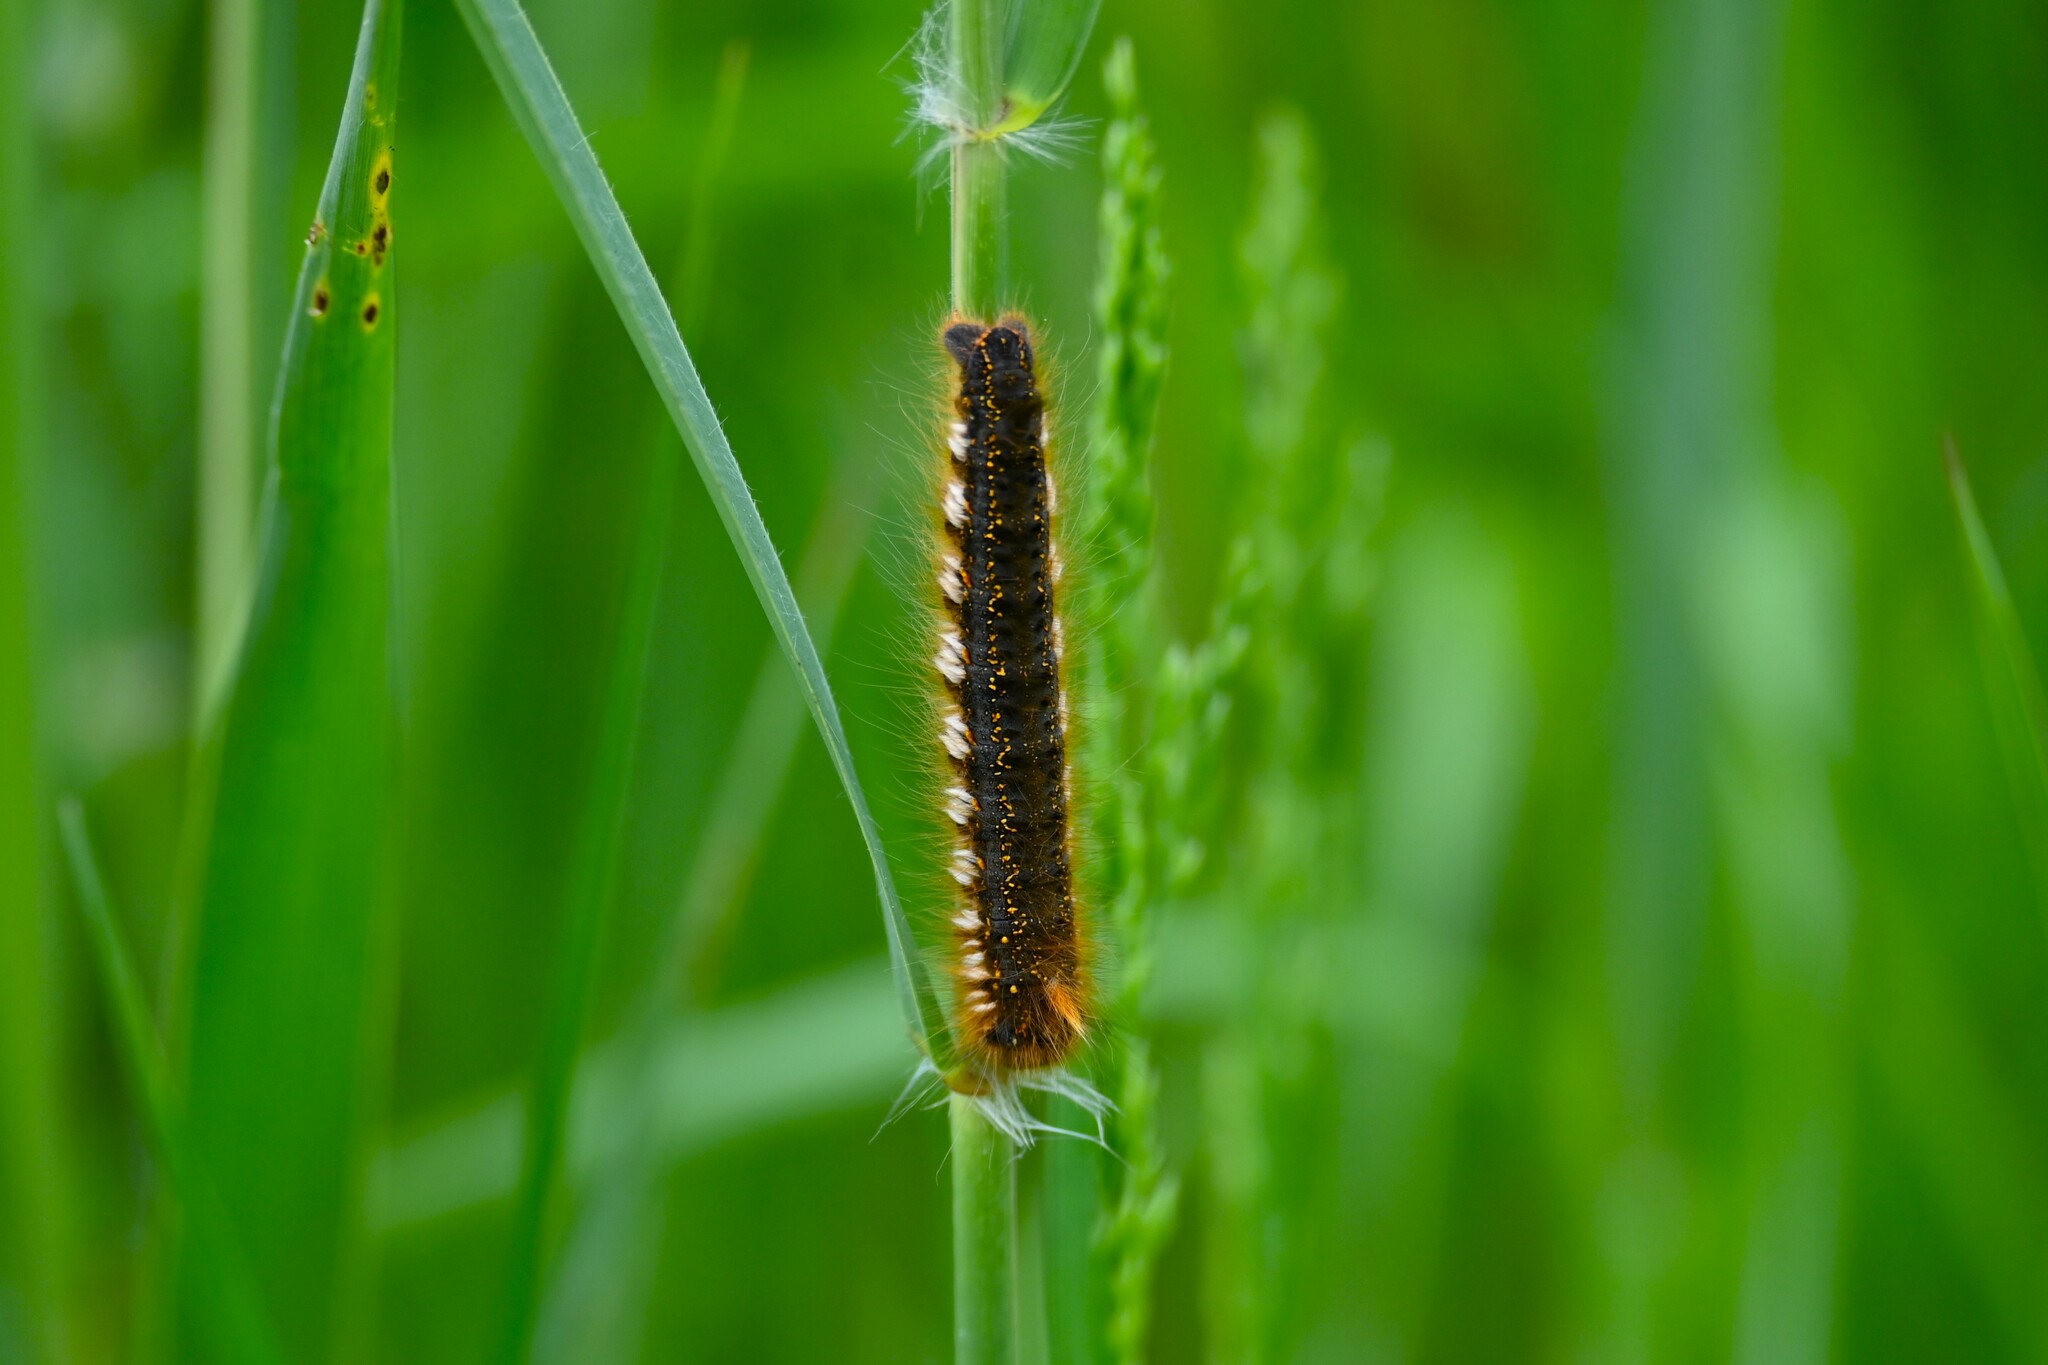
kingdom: Animalia
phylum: Arthropoda
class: Insecta
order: Lepidoptera
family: Lasiocampidae
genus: Euthrix
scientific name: Euthrix potatoria
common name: Drinker
